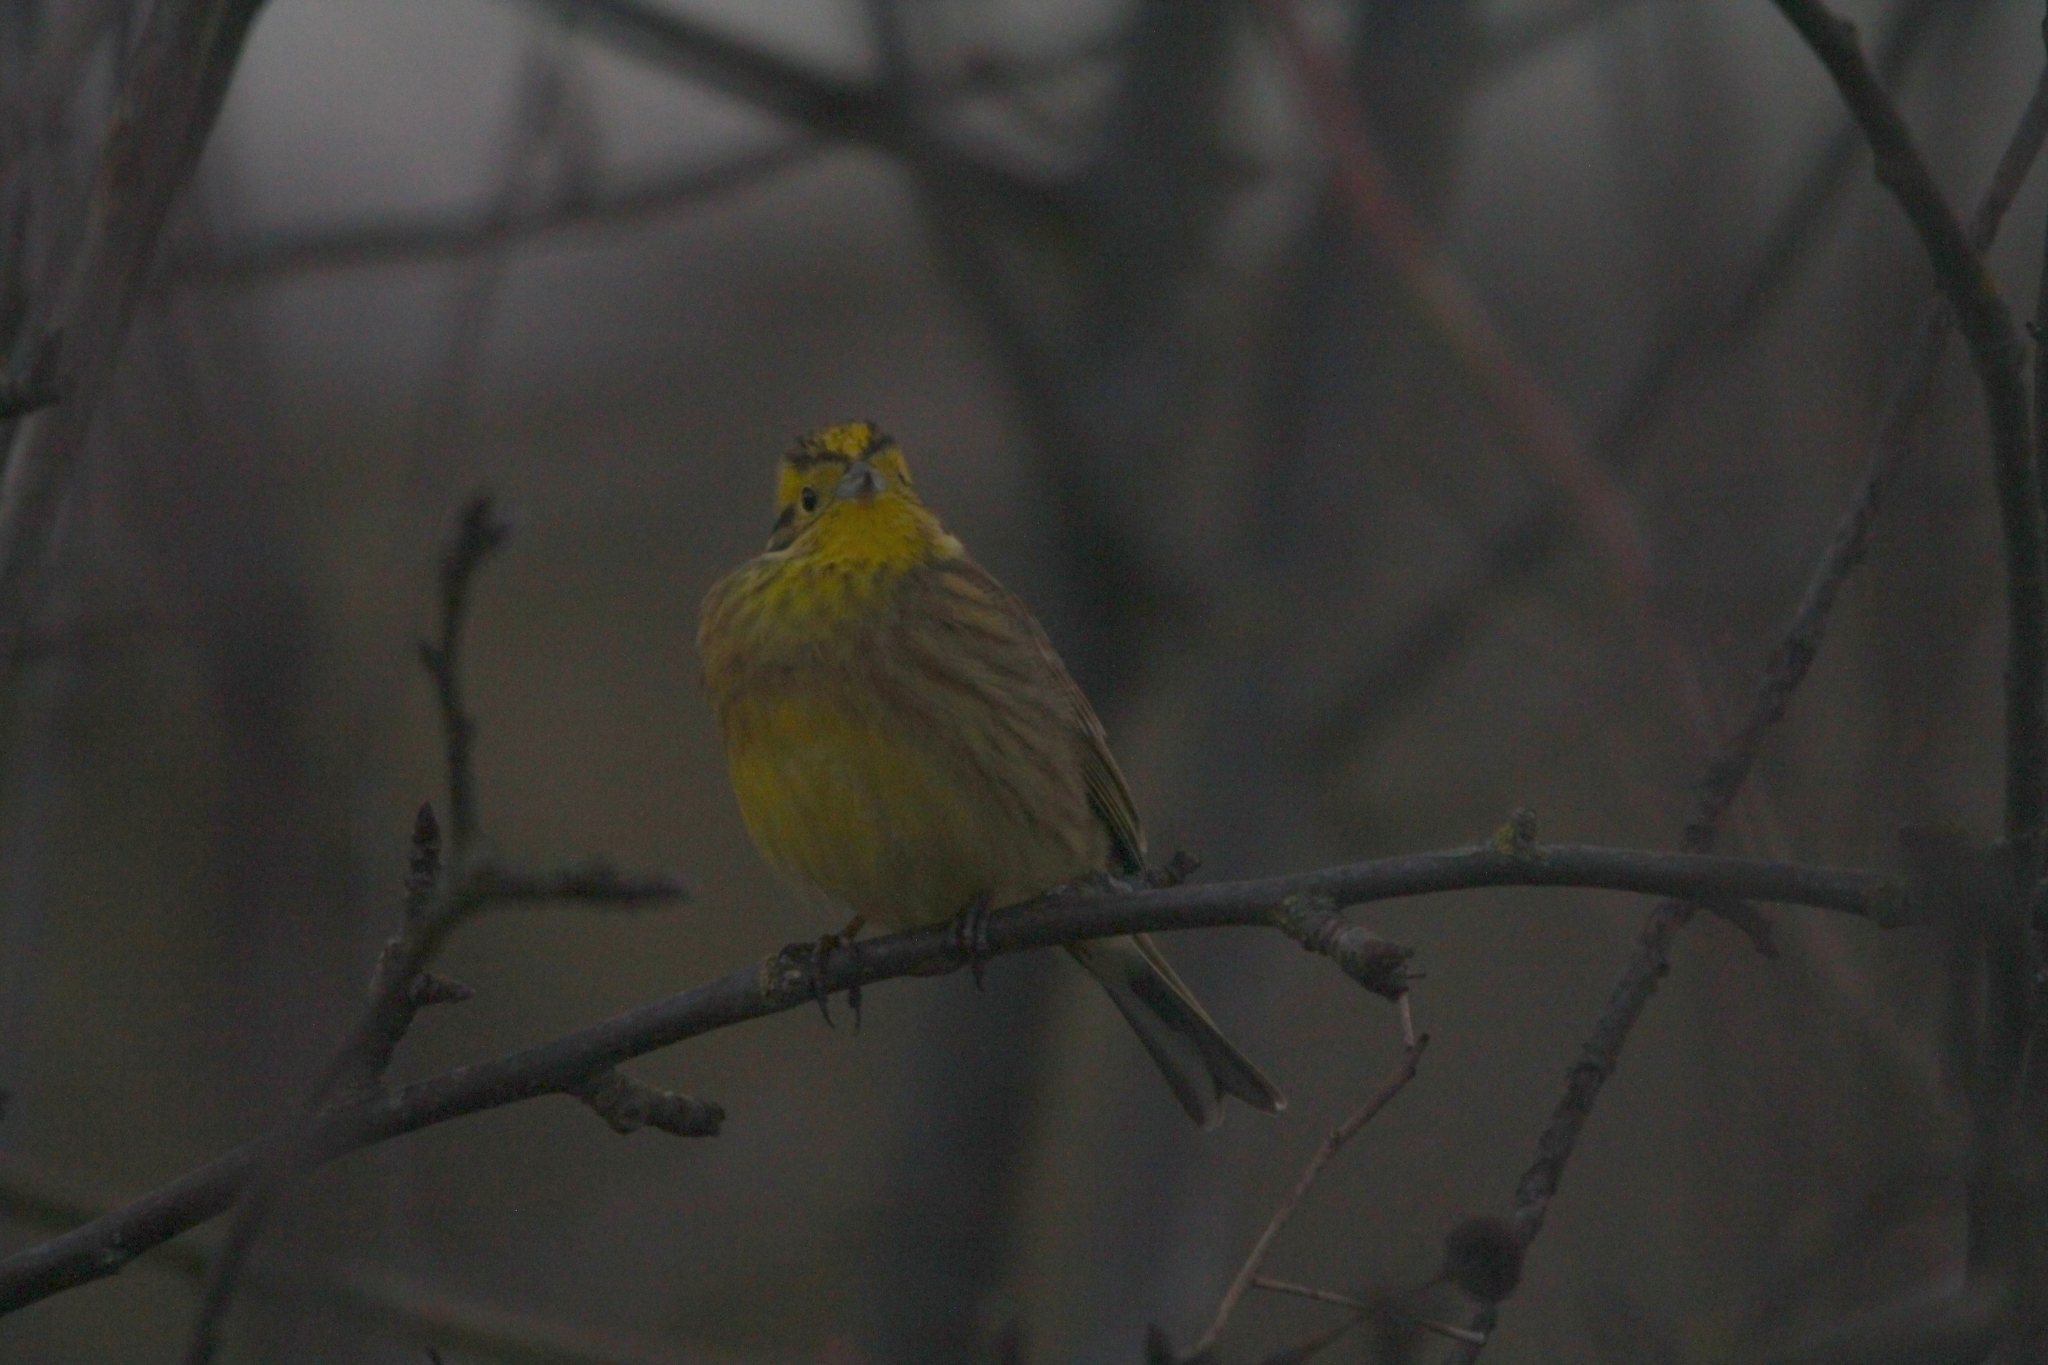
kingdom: Animalia
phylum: Chordata
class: Aves
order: Passeriformes
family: Emberizidae
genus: Emberiza
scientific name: Emberiza citrinella
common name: Yellowhammer
